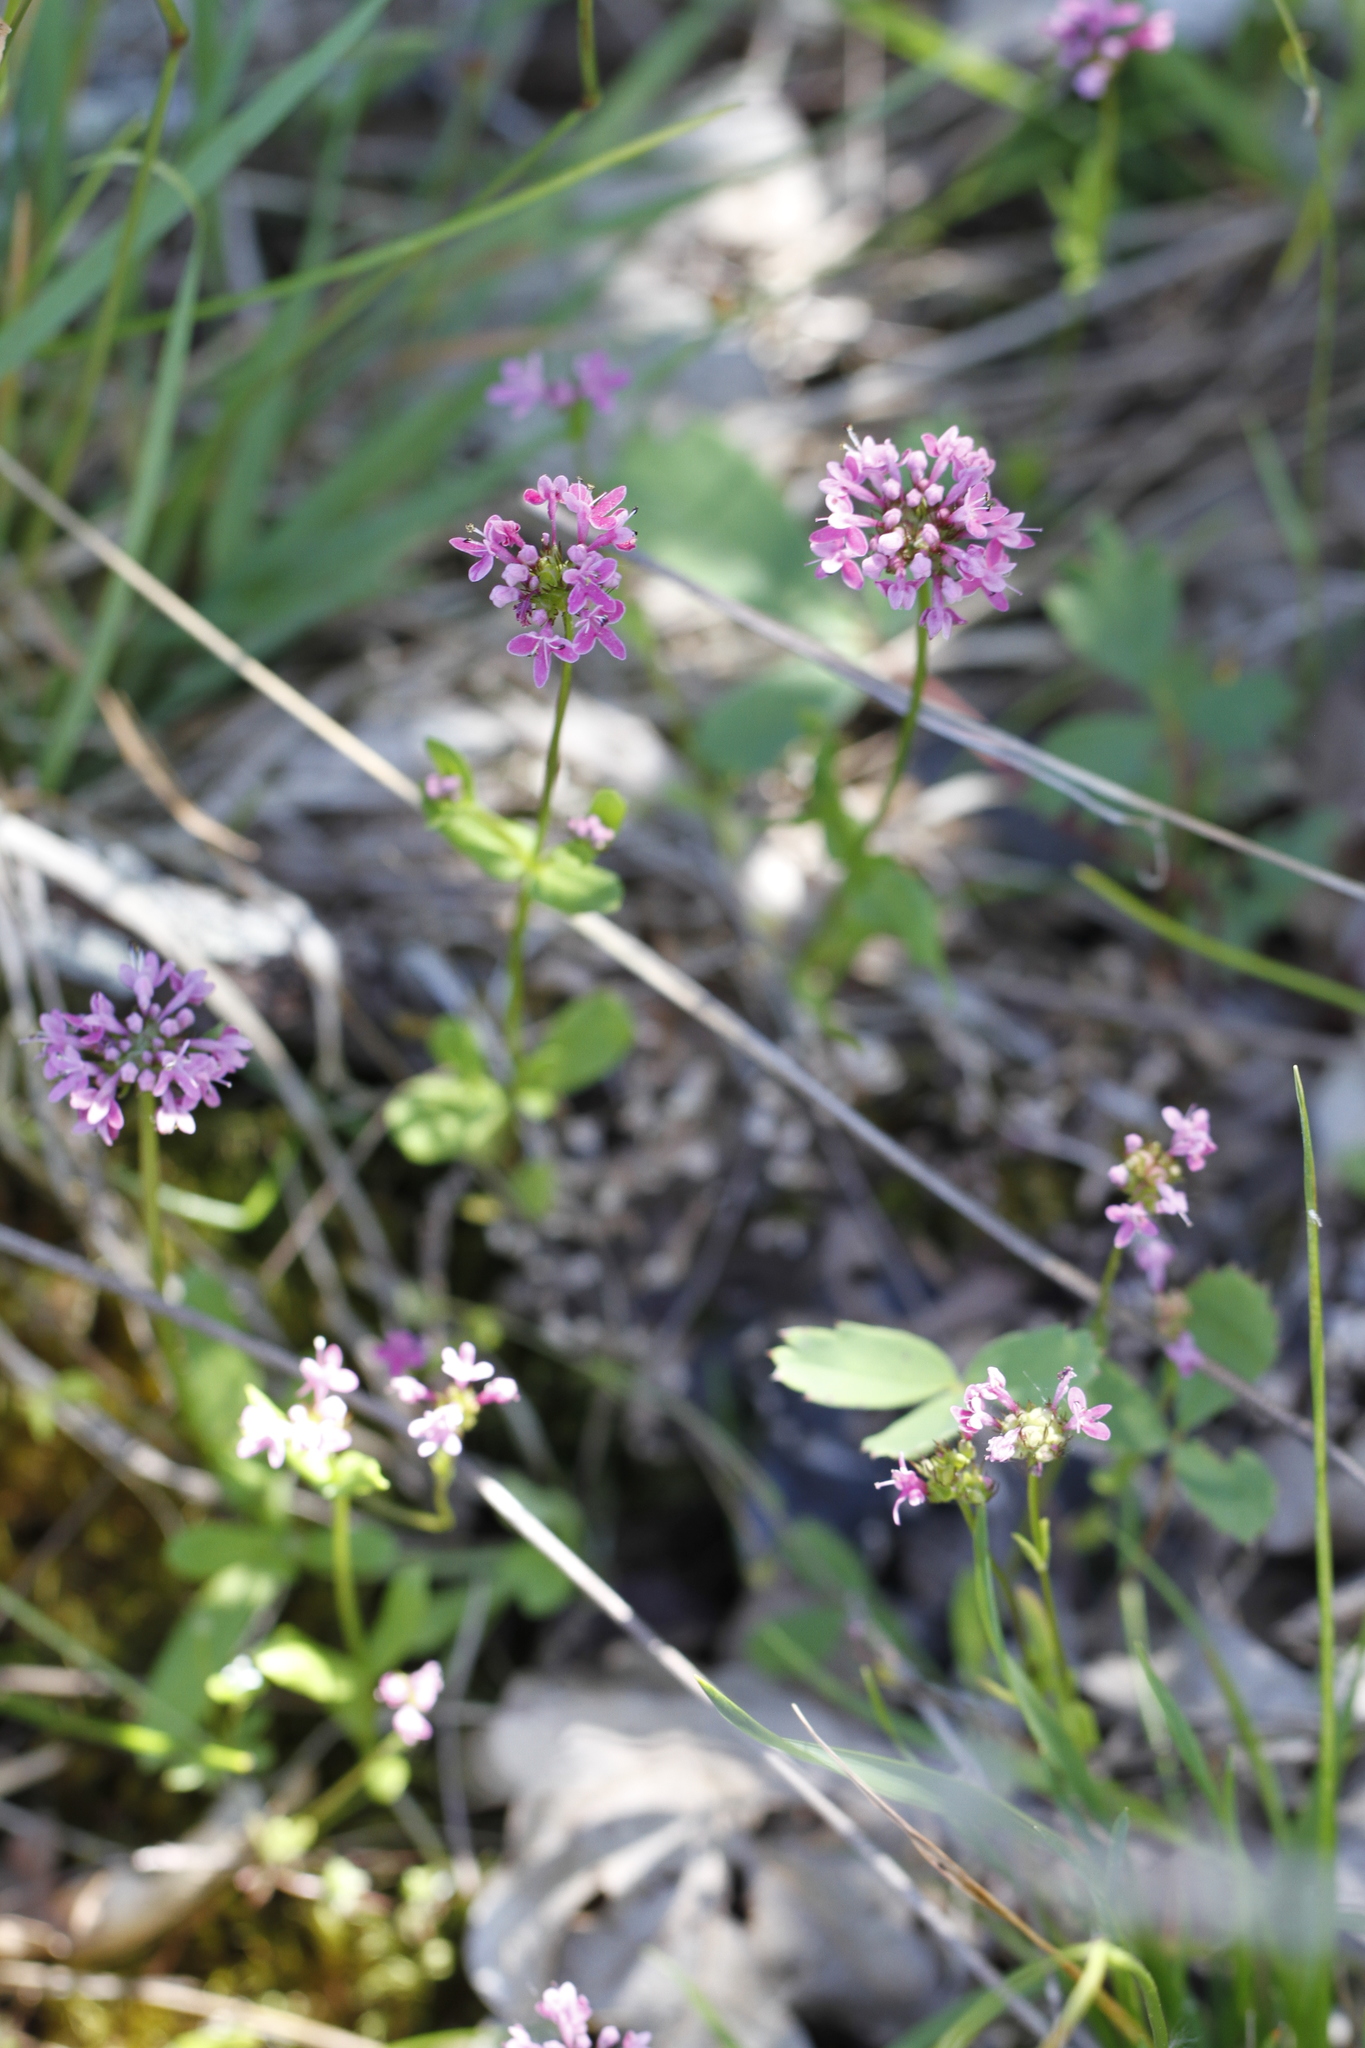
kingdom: Plantae
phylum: Tracheophyta
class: Magnoliopsida
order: Dipsacales
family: Caprifoliaceae
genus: Plectritis
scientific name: Plectritis congesta
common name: Pink plectritis
